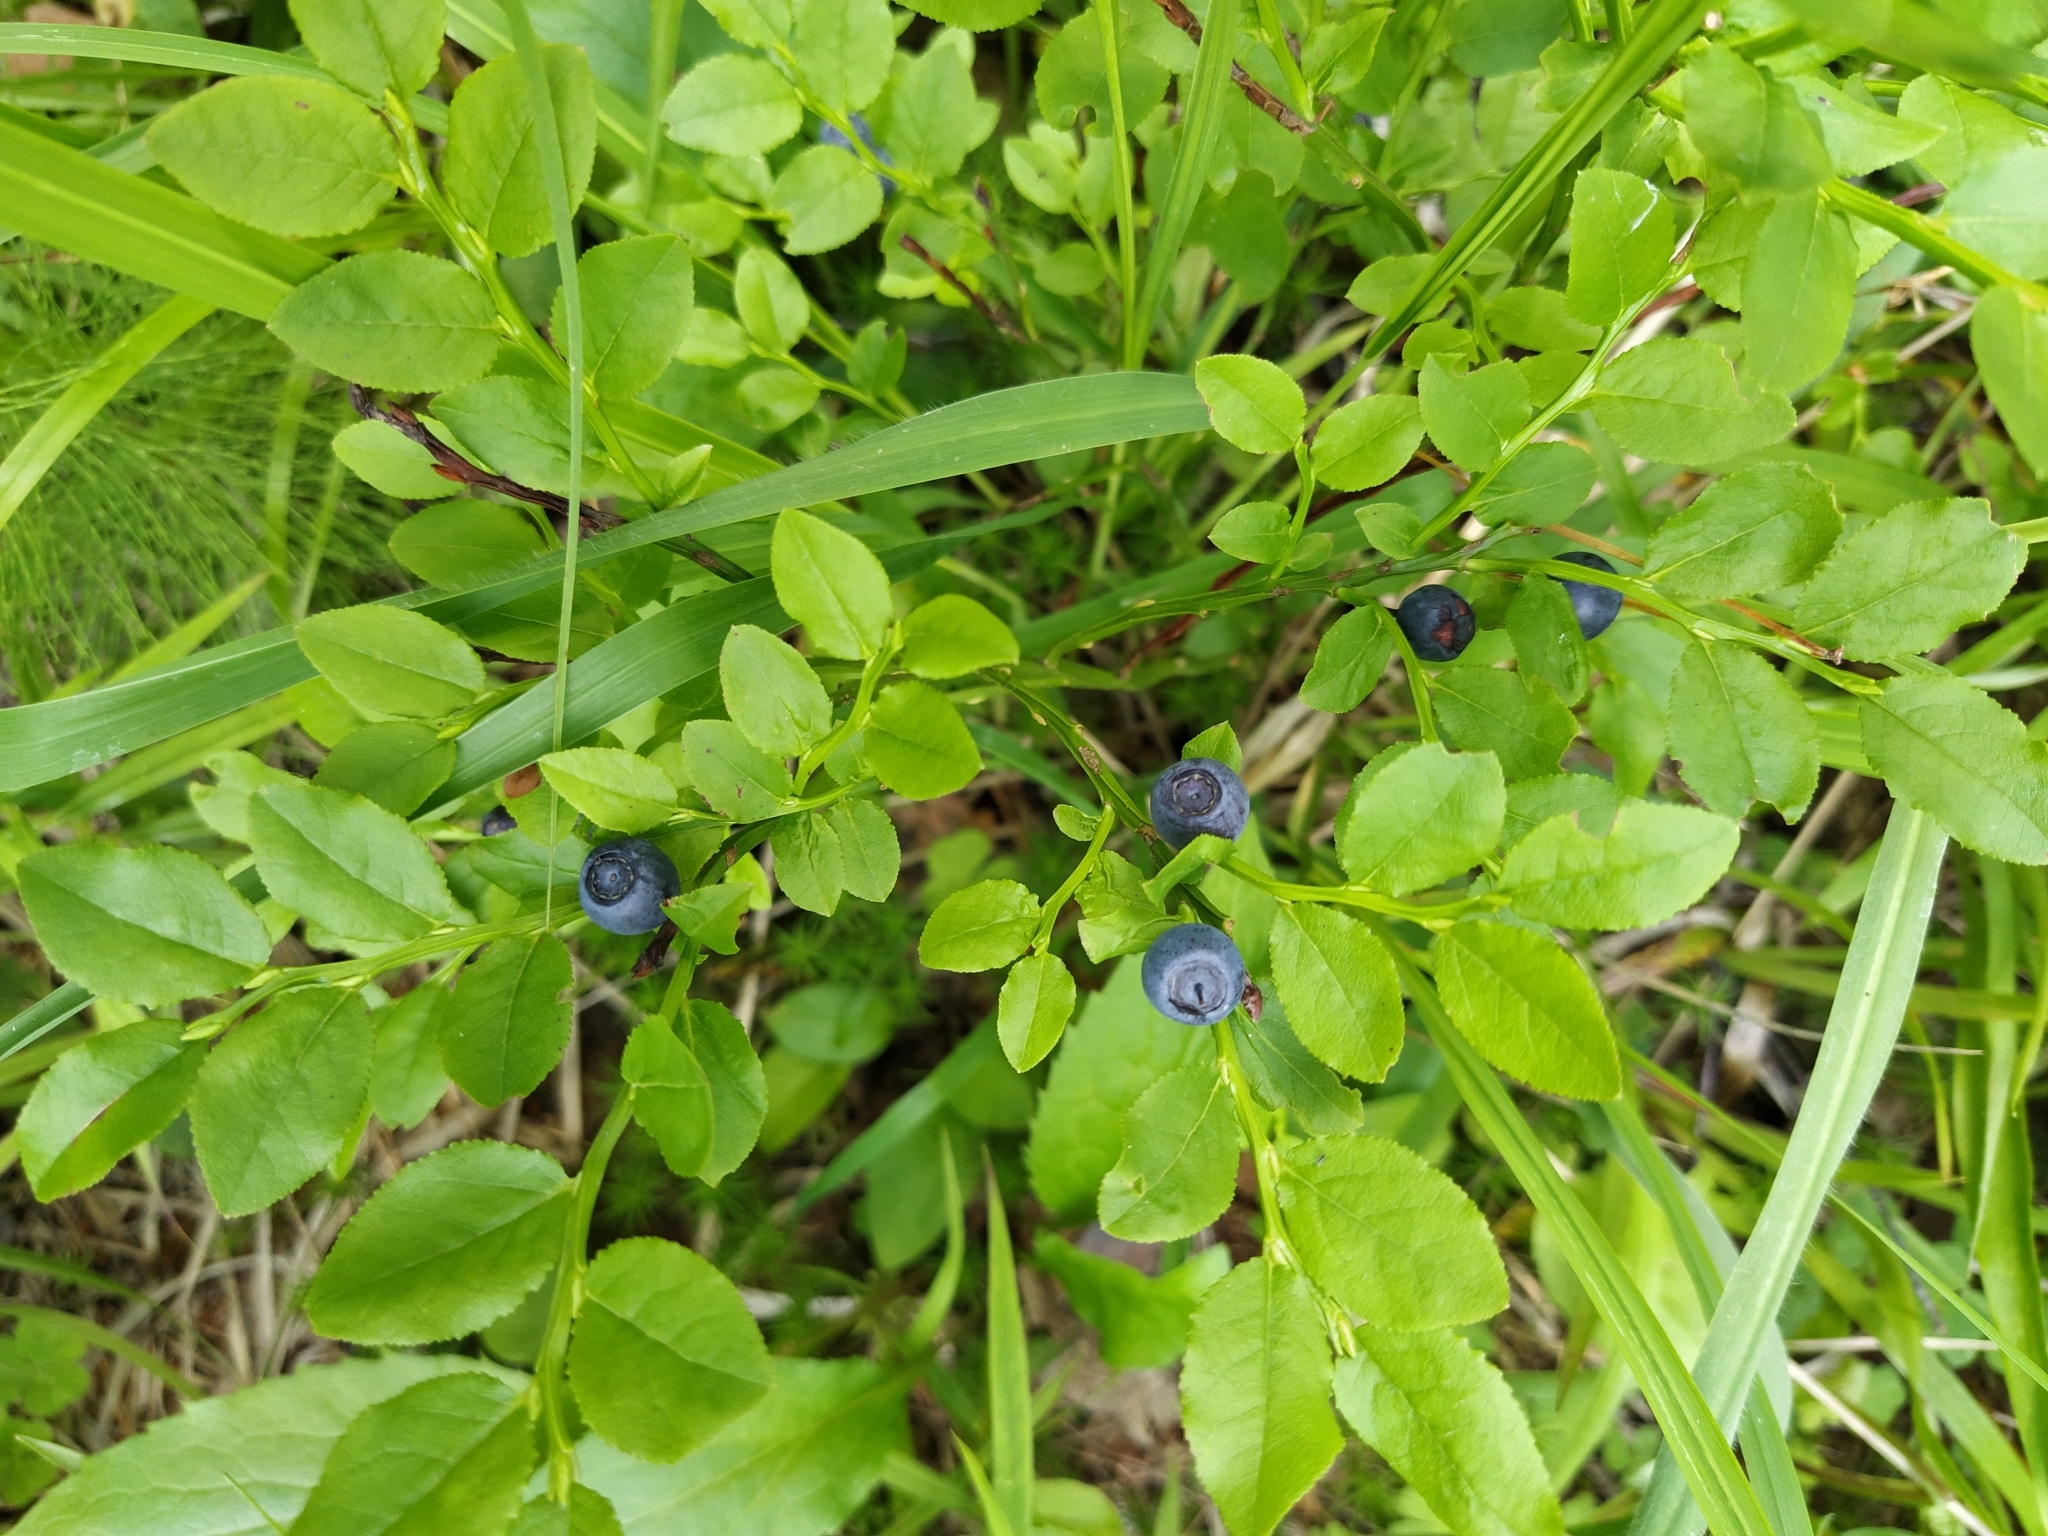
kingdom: Plantae
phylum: Tracheophyta
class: Magnoliopsida
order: Ericales
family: Ericaceae
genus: Vaccinium
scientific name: Vaccinium myrtillus
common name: Bilberry
